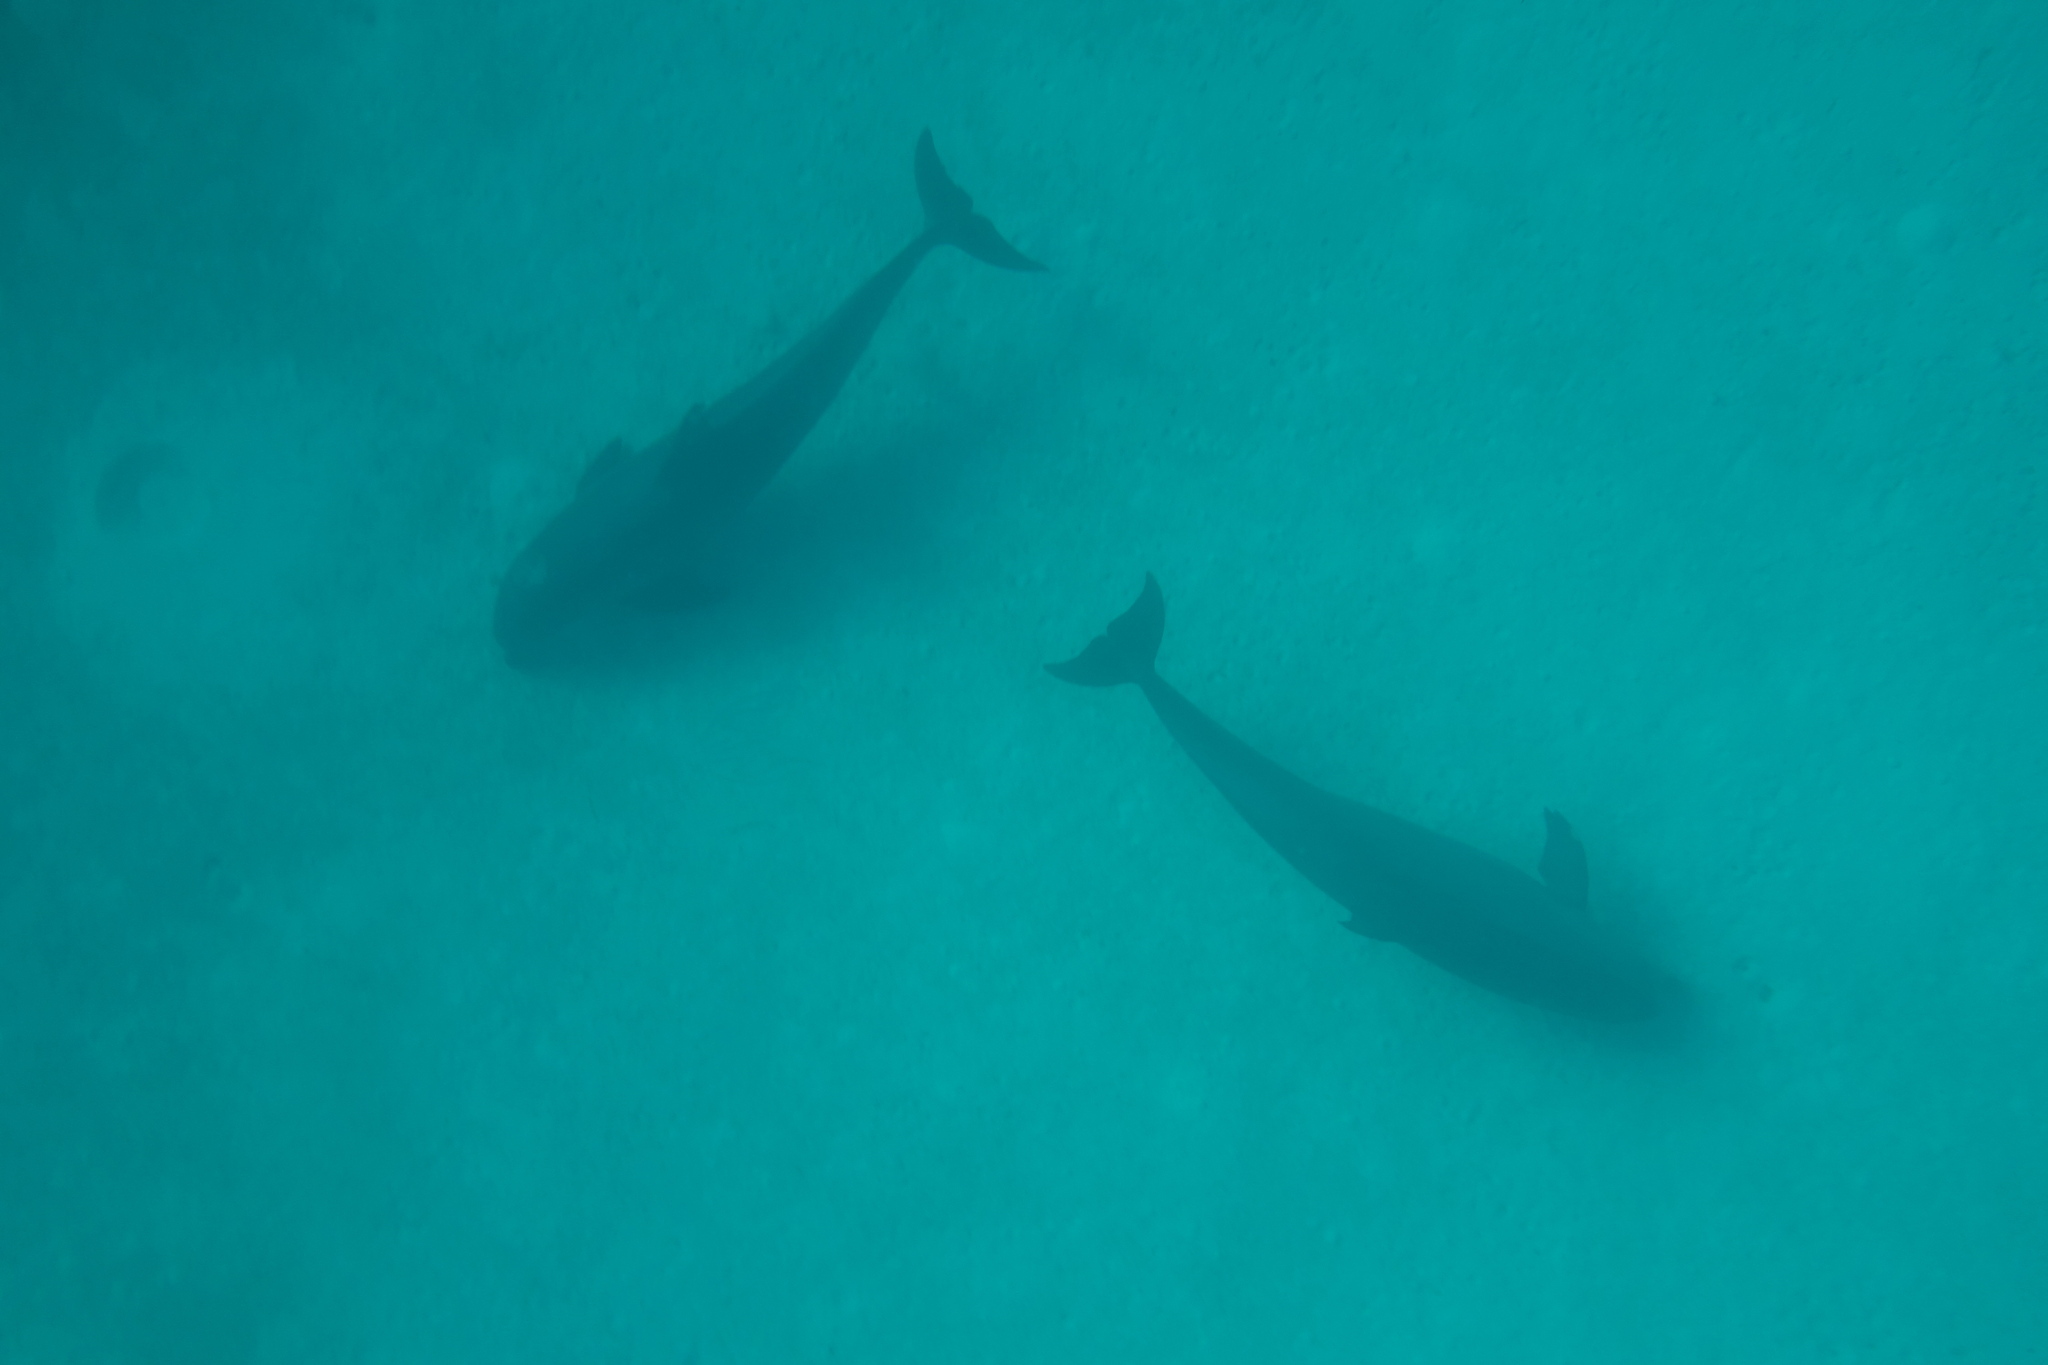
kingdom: Animalia
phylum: Chordata
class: Mammalia
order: Cetacea
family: Delphinidae
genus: Tursiops
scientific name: Tursiops truncatus
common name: Bottlenose dolphin
